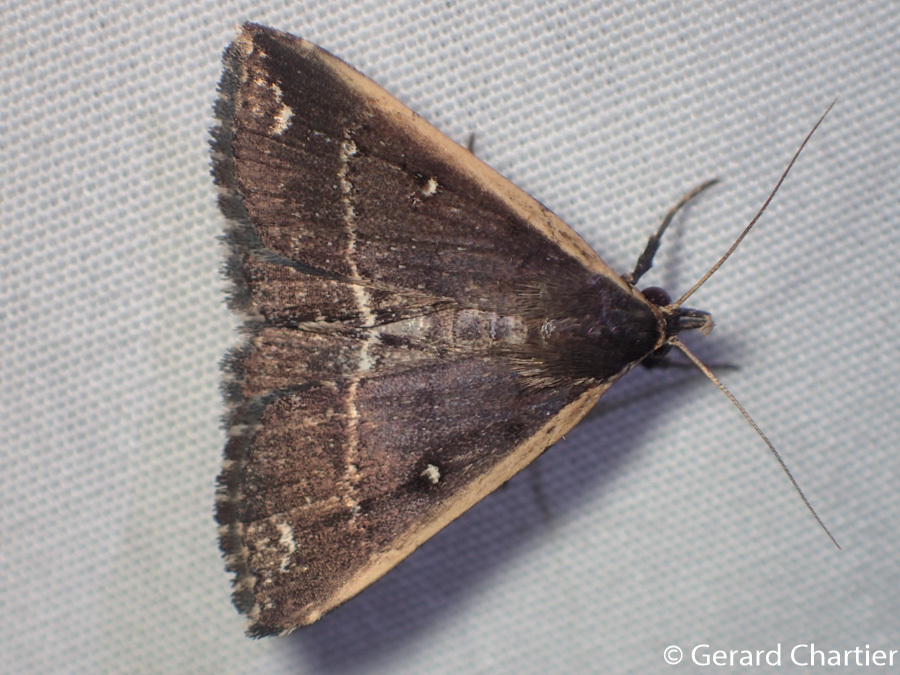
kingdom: Animalia
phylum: Arthropoda
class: Insecta
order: Lepidoptera
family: Erebidae
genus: Adrapsa
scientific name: Adrapsa ablualis
